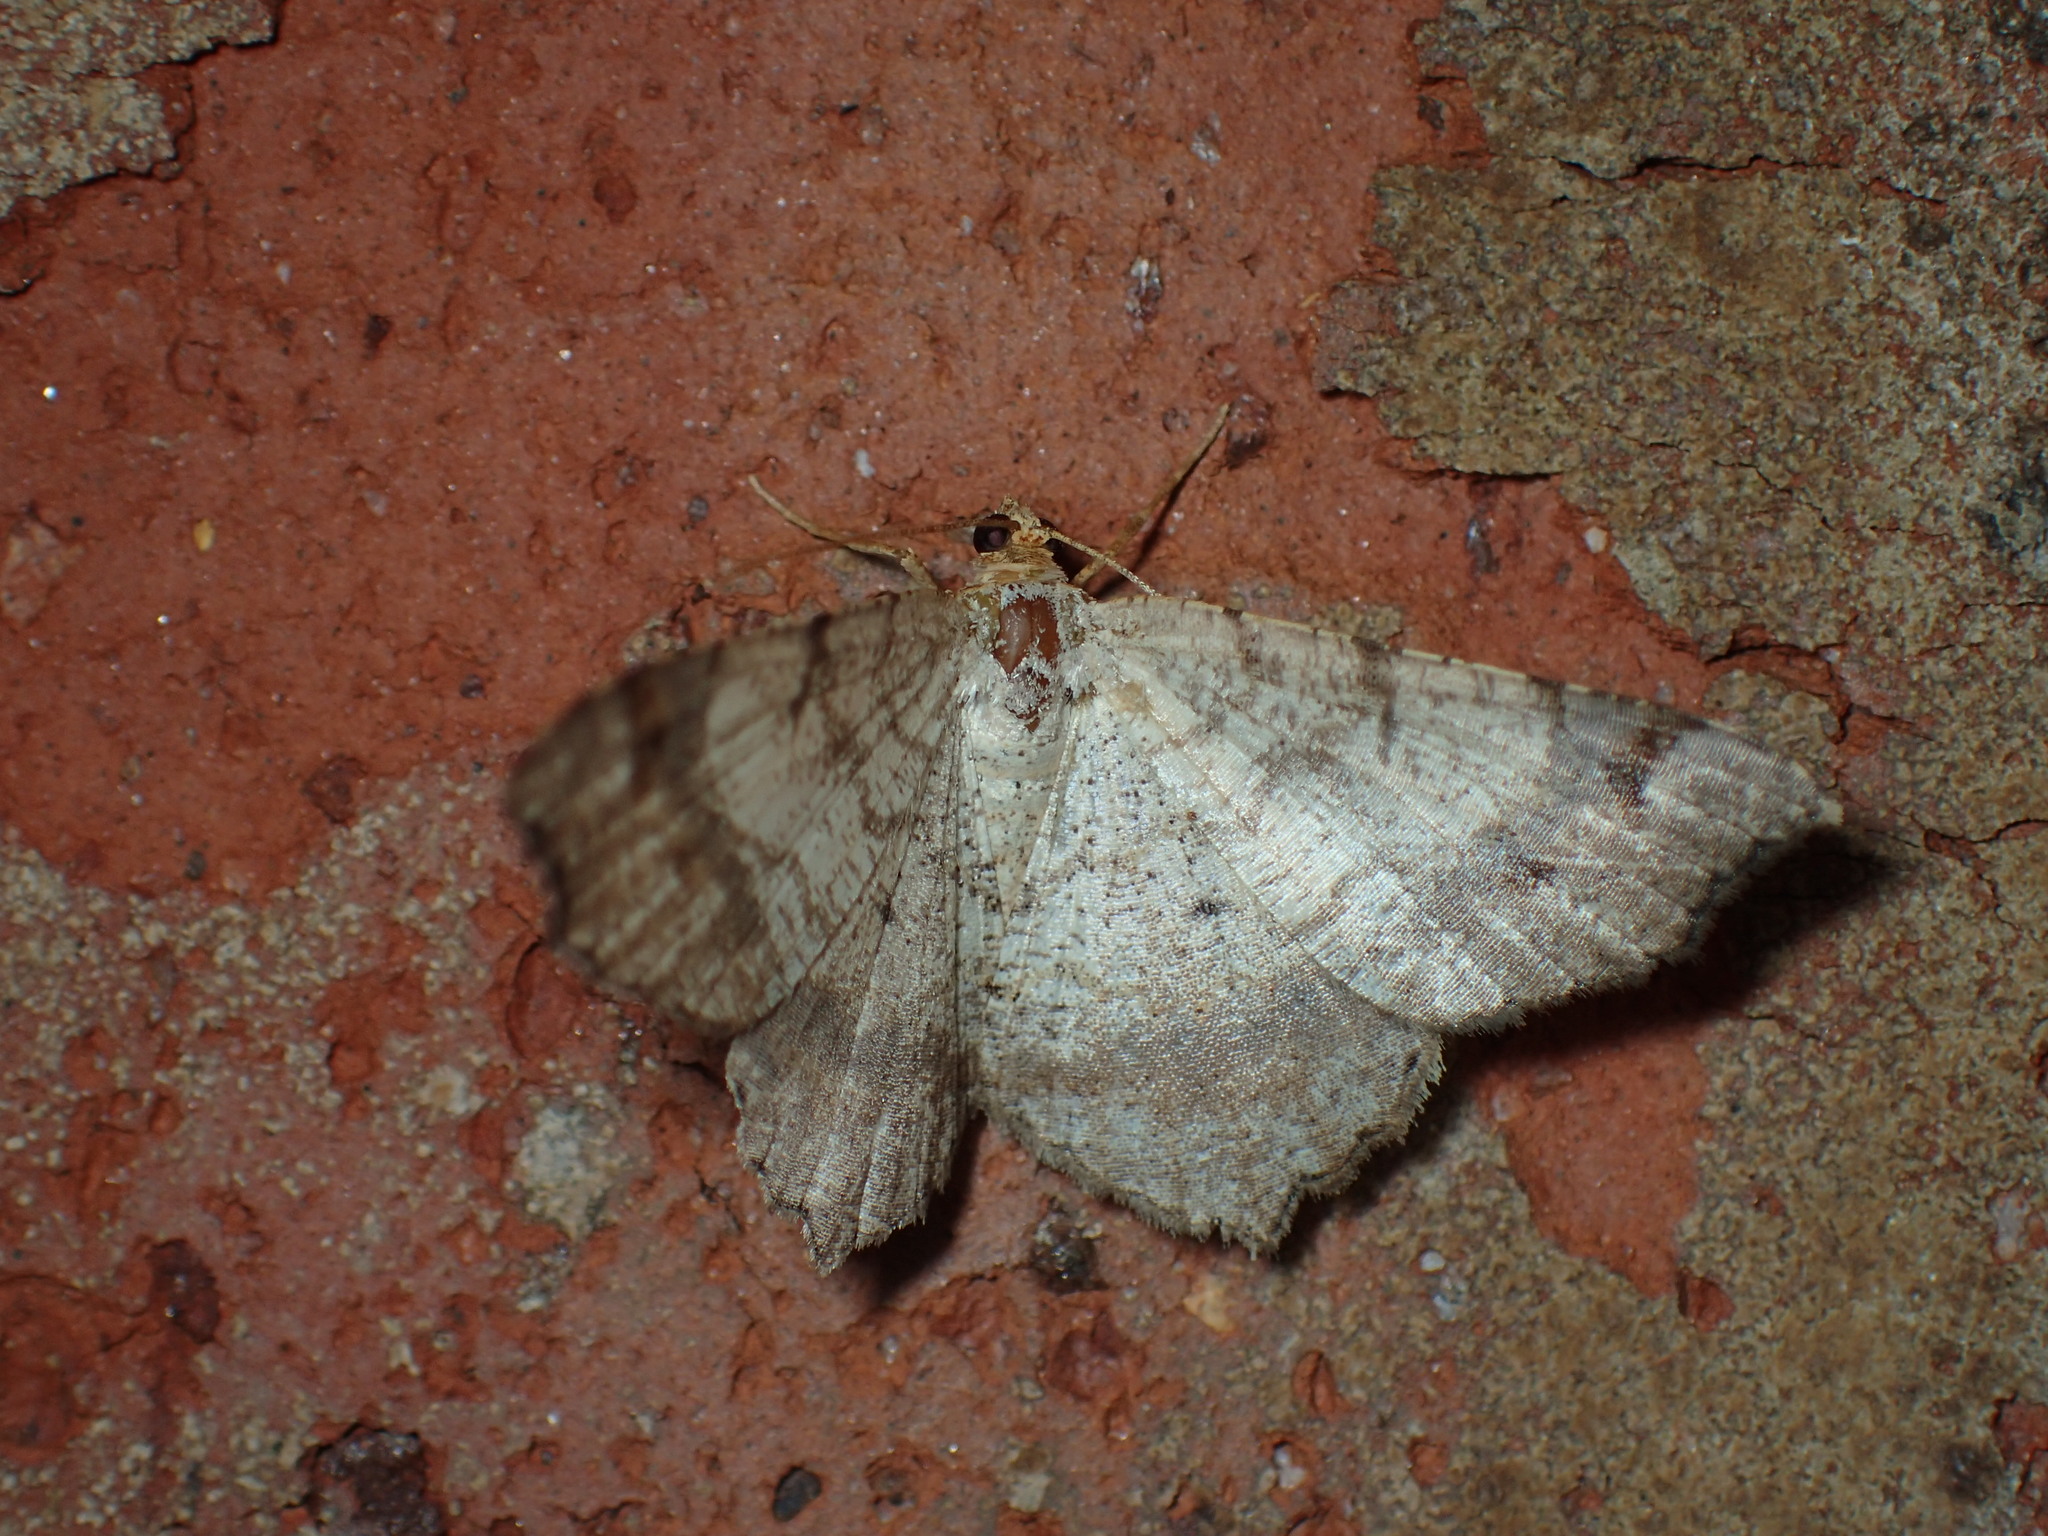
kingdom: Animalia
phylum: Arthropoda
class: Insecta
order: Lepidoptera
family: Geometridae
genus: Macaria
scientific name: Macaria bicolorata
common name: Dingy angle
